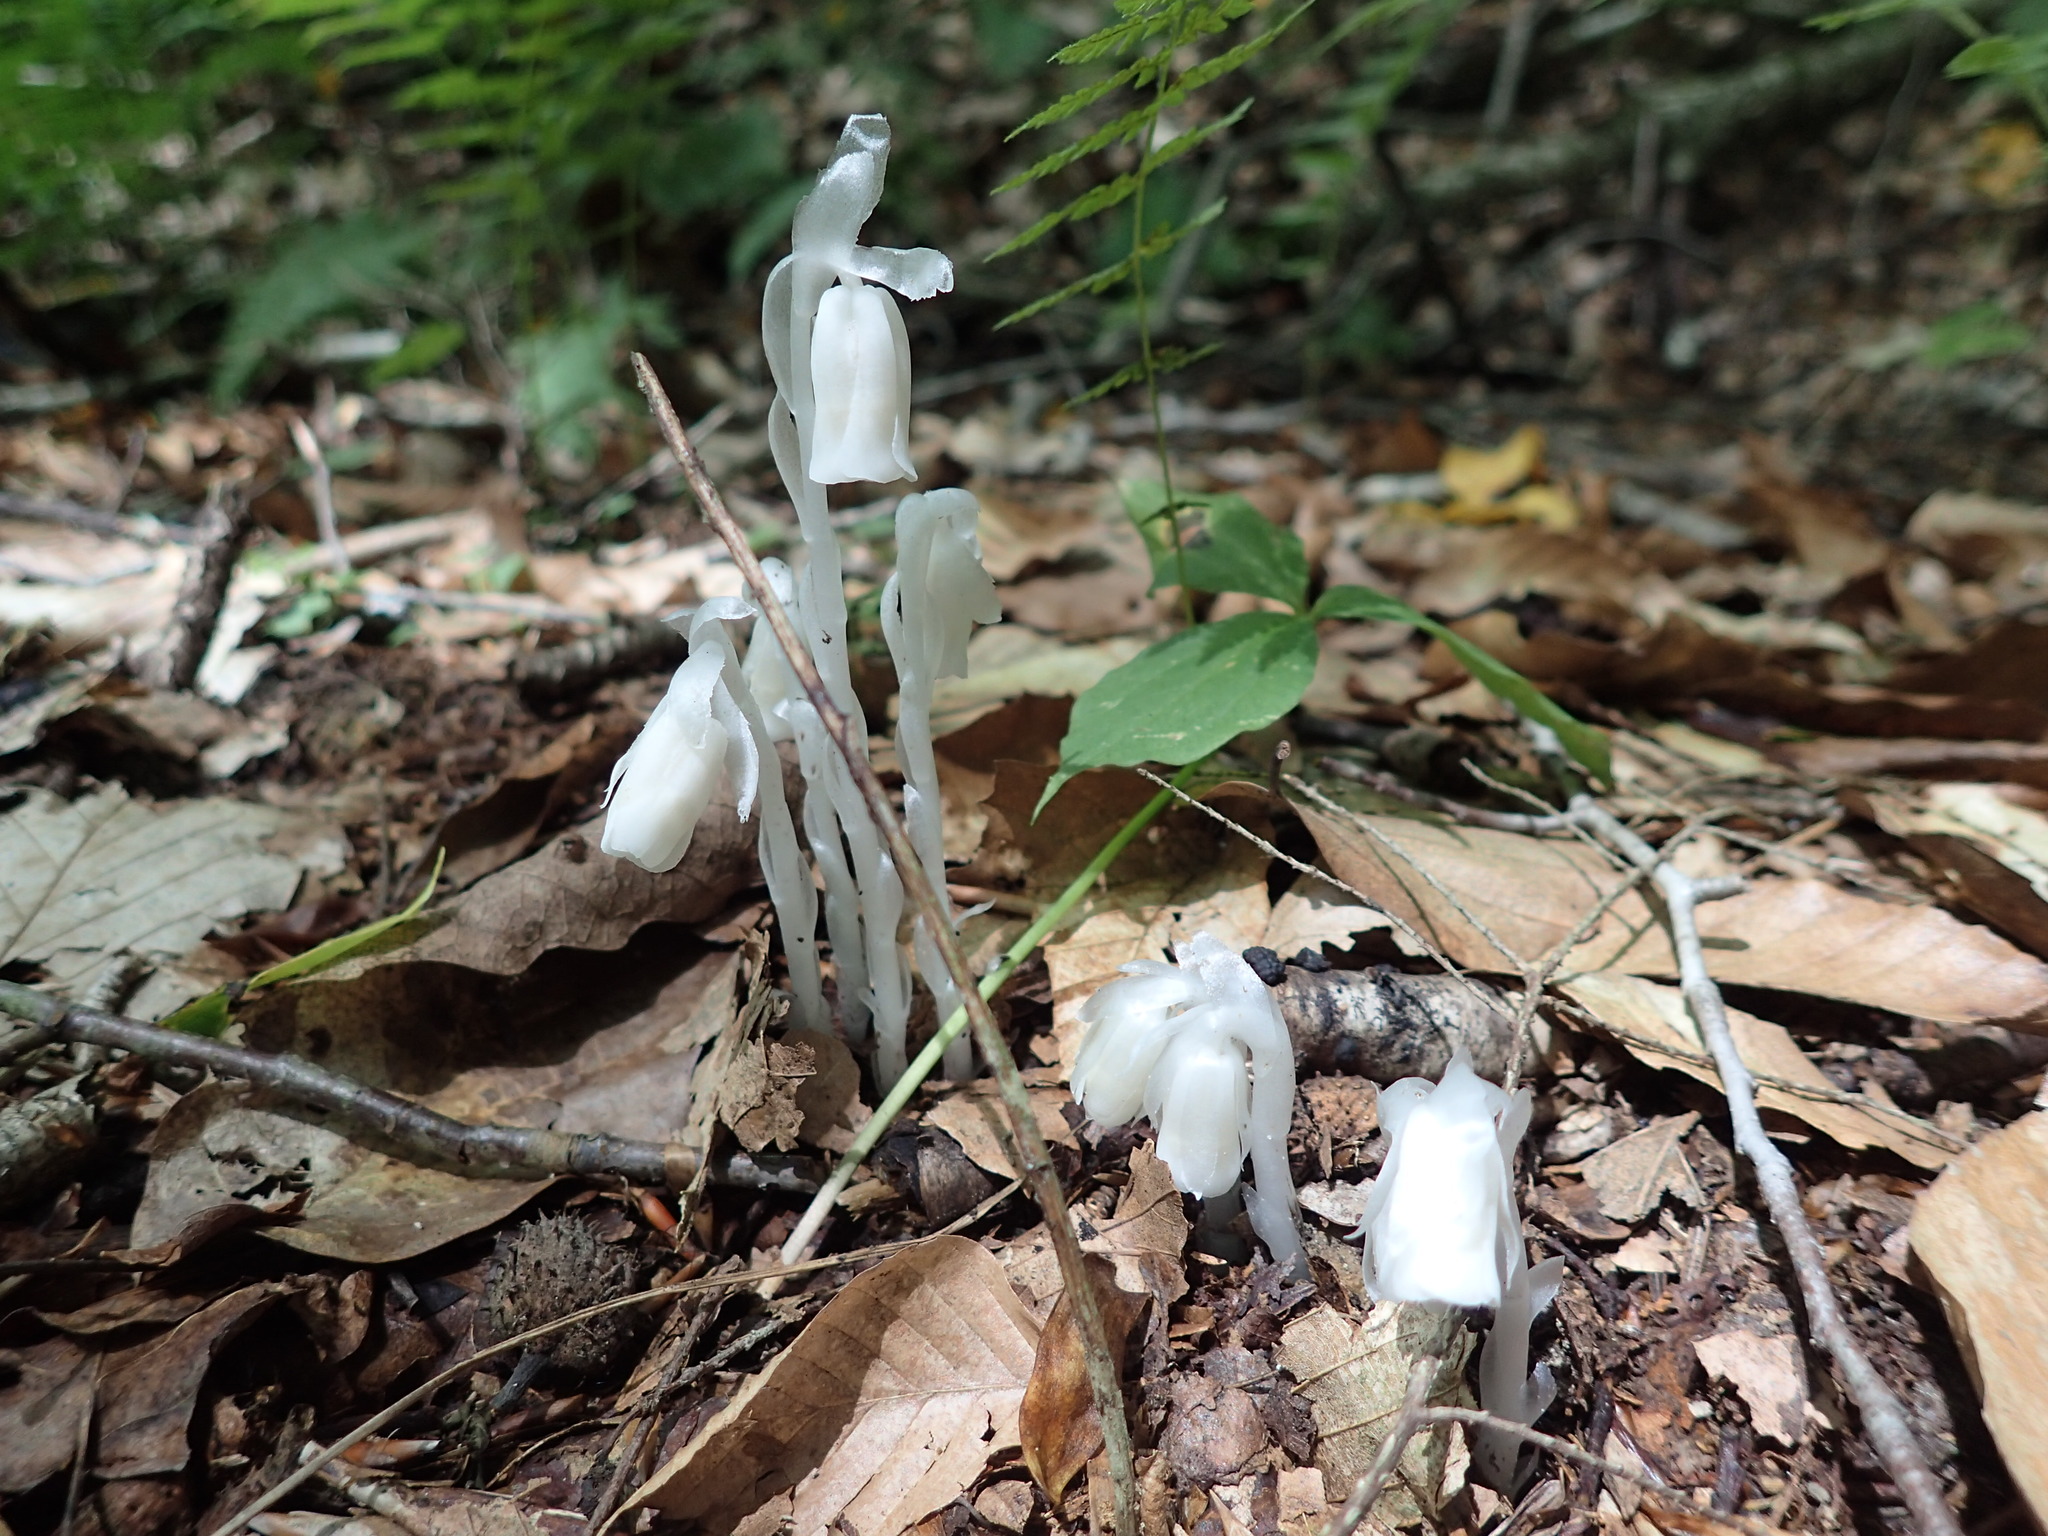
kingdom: Plantae
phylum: Tracheophyta
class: Magnoliopsida
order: Ericales
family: Ericaceae
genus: Monotropa
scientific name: Monotropa uniflora
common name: Convulsion root
